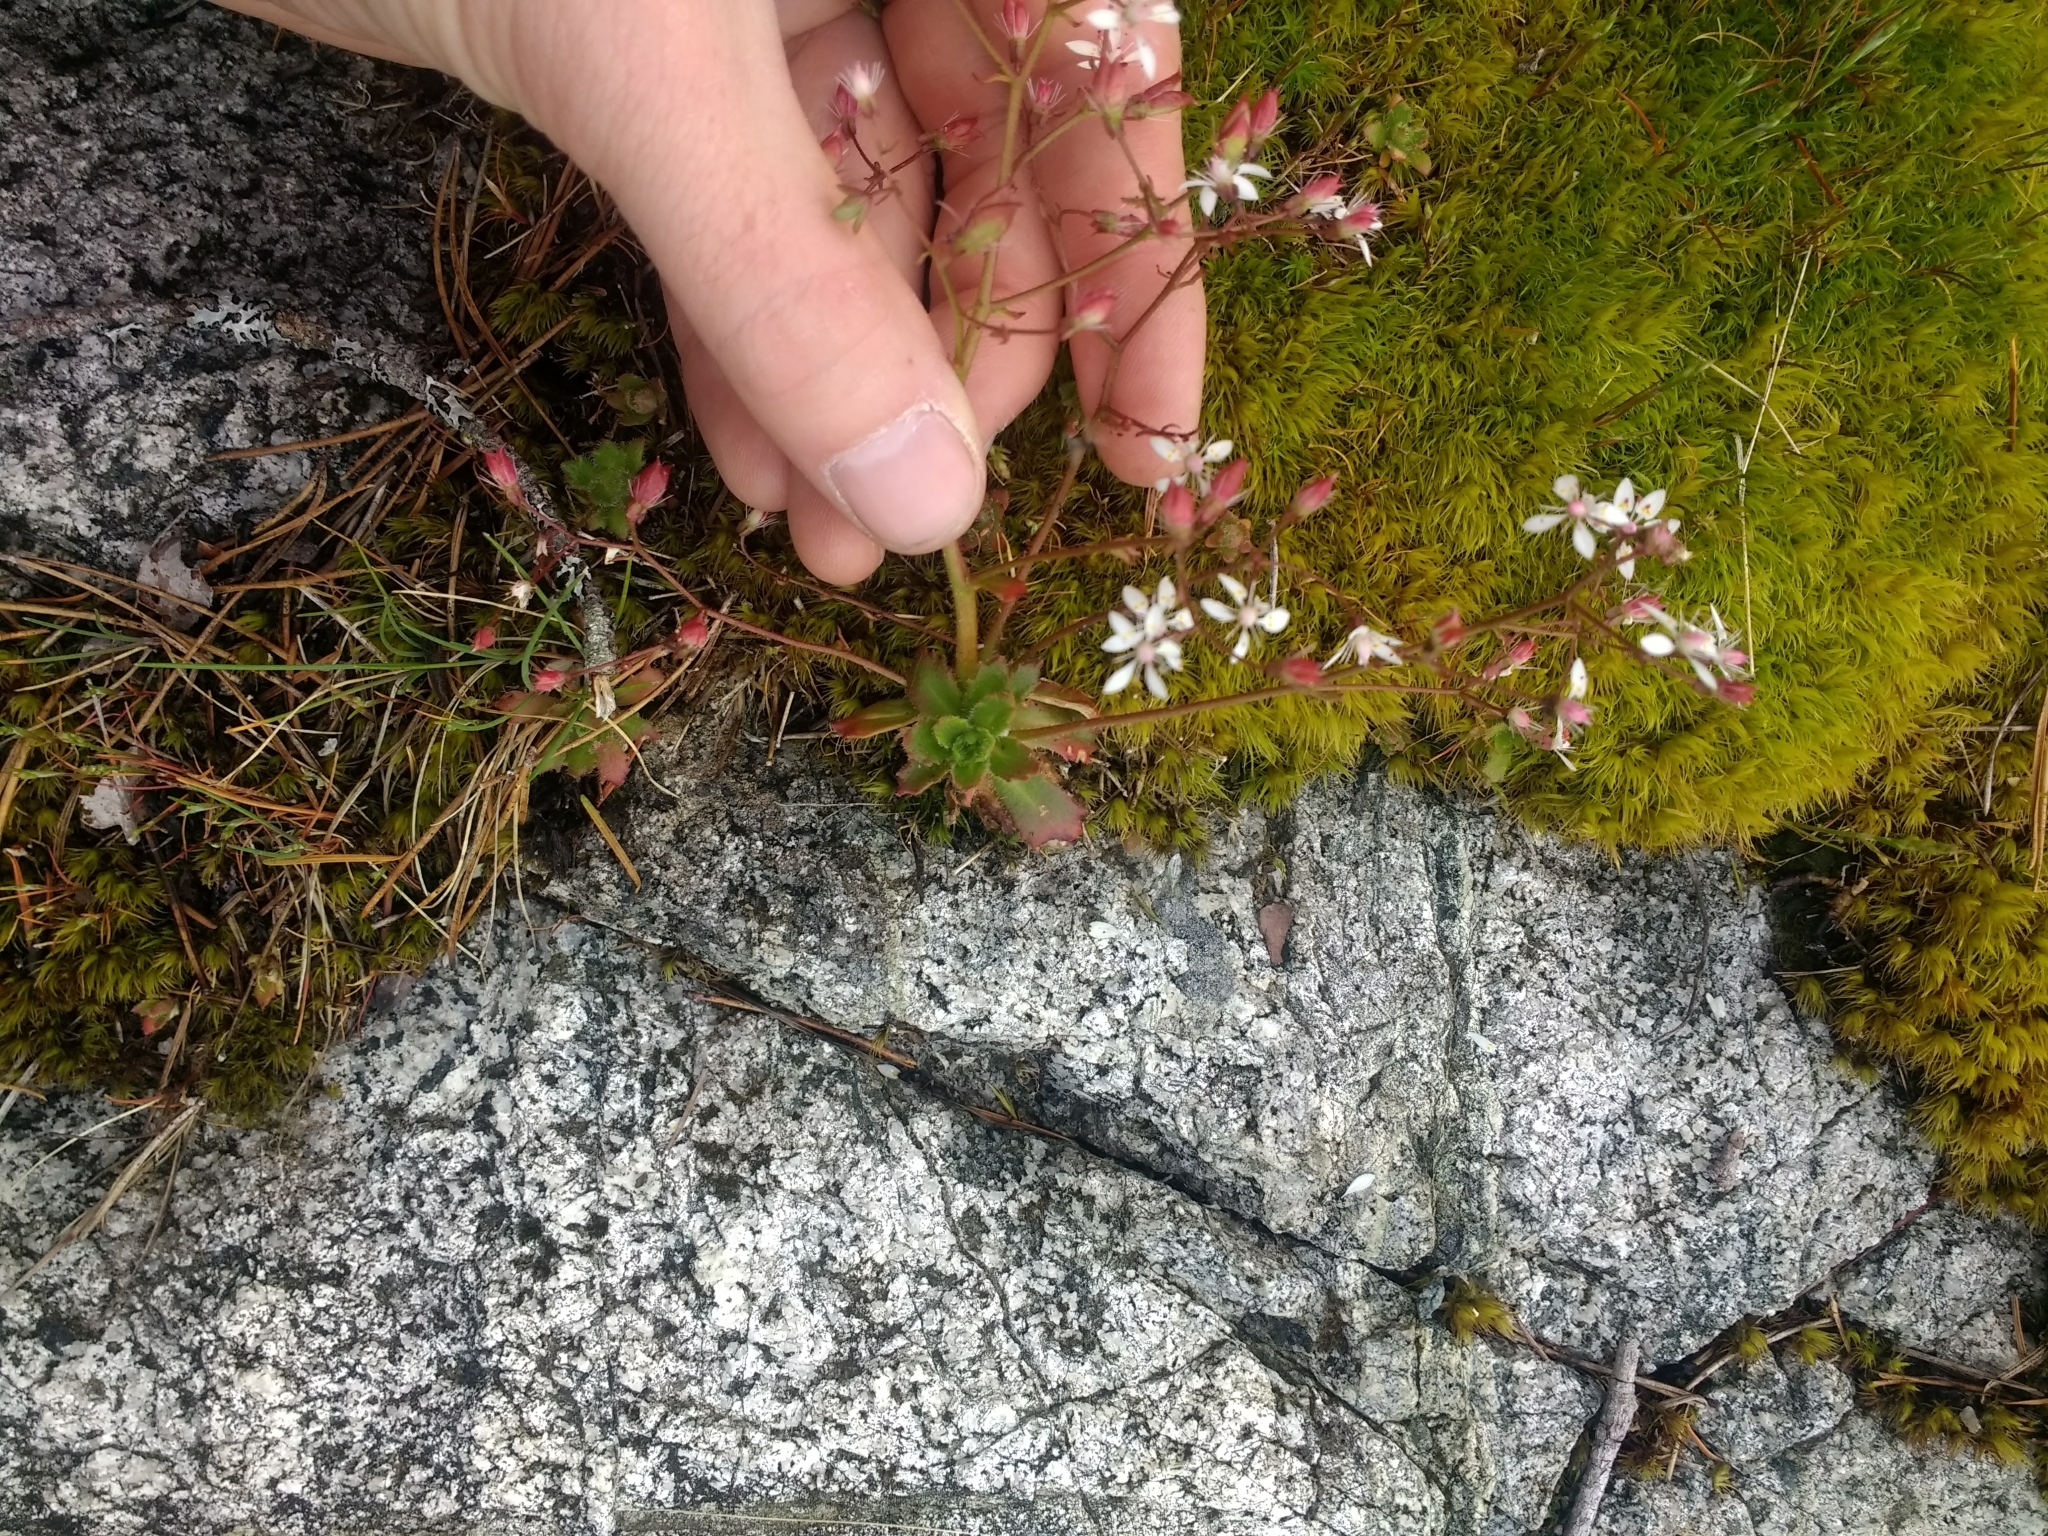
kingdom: Plantae
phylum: Tracheophyta
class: Magnoliopsida
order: Saxifragales
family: Saxifragaceae
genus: Micranthes
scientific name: Micranthes ferruginea
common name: Rusty saxifrage
